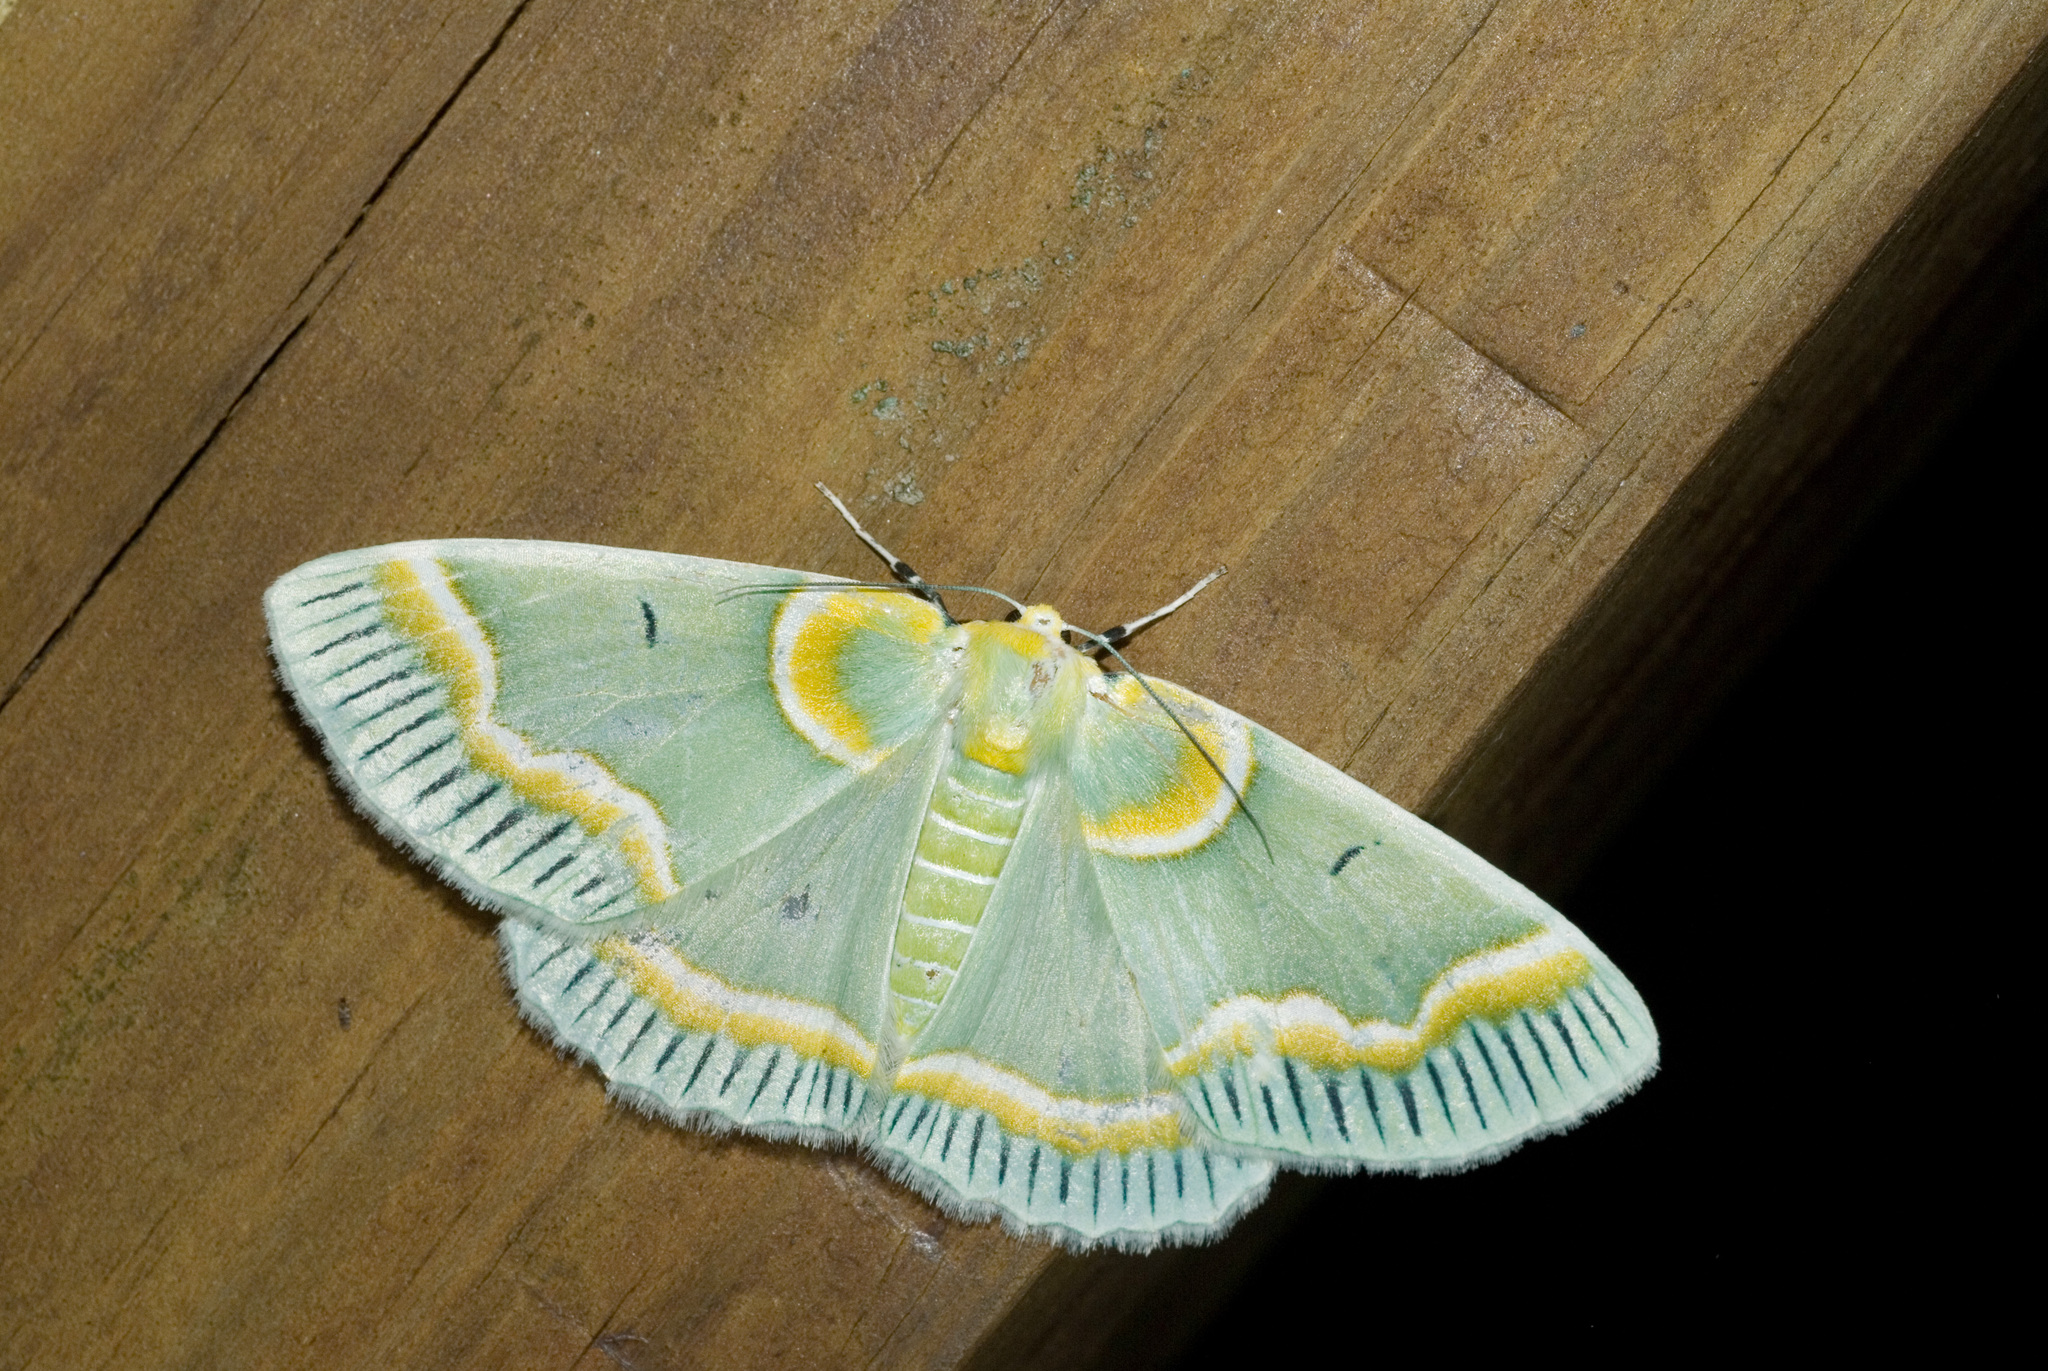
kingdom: Animalia
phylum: Arthropoda
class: Insecta
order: Lepidoptera
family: Geometridae
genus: Iotaphora
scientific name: Iotaphora admirabilis
